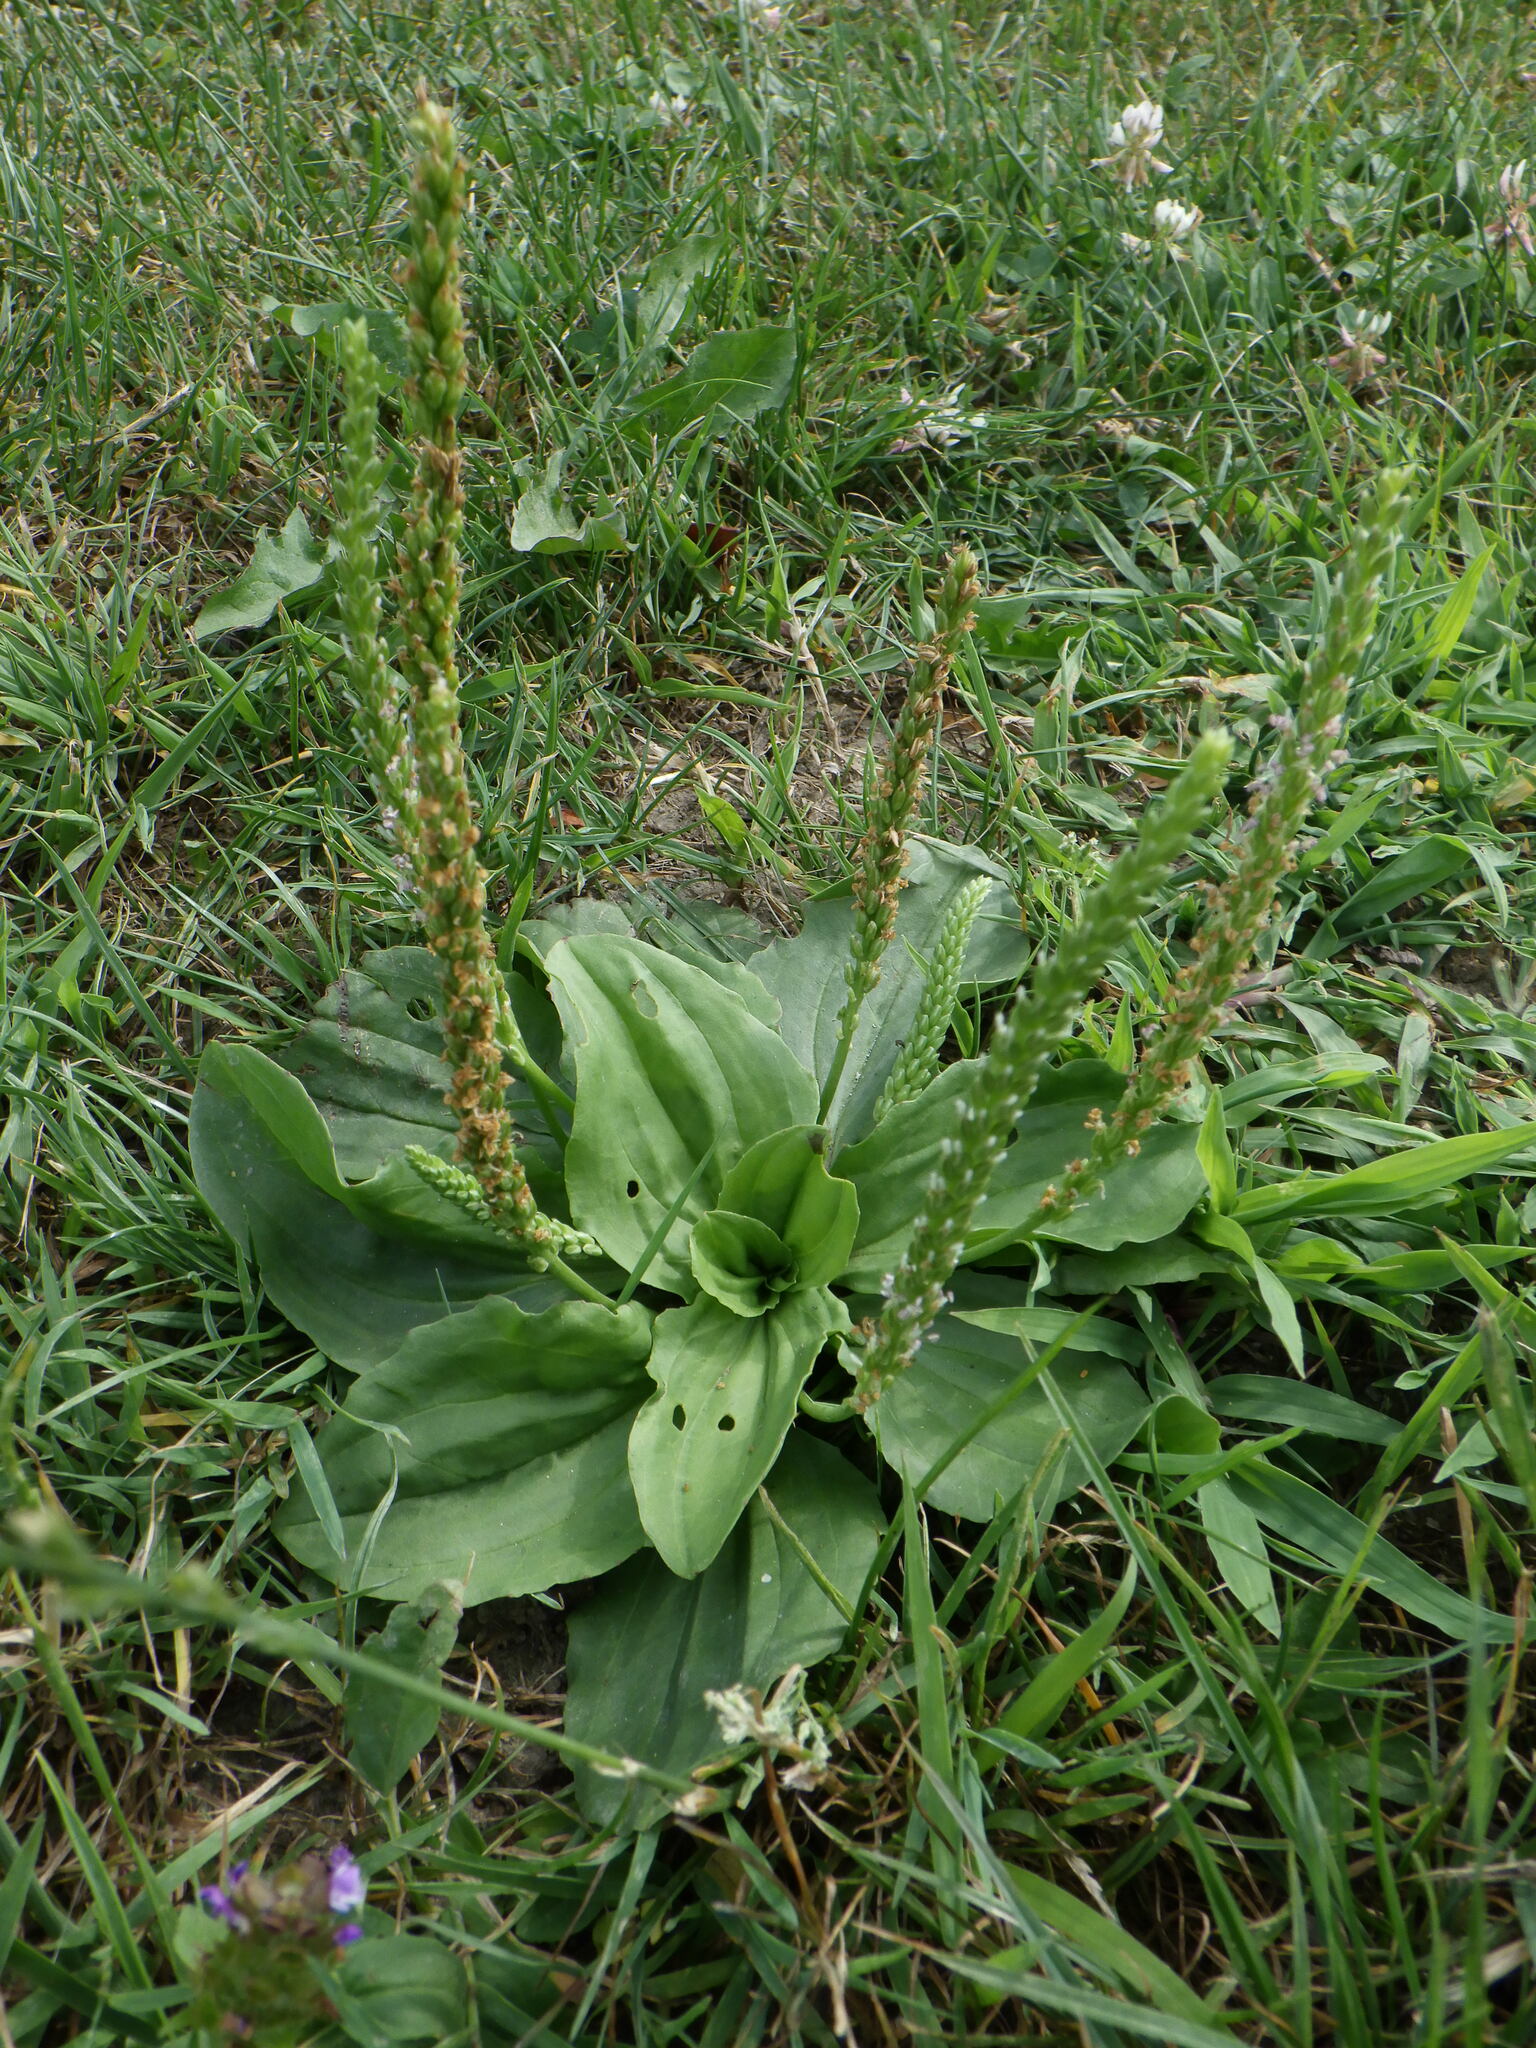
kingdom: Plantae
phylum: Tracheophyta
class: Magnoliopsida
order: Lamiales
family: Plantaginaceae
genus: Plantago
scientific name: Plantago rugelii
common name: American plantain
